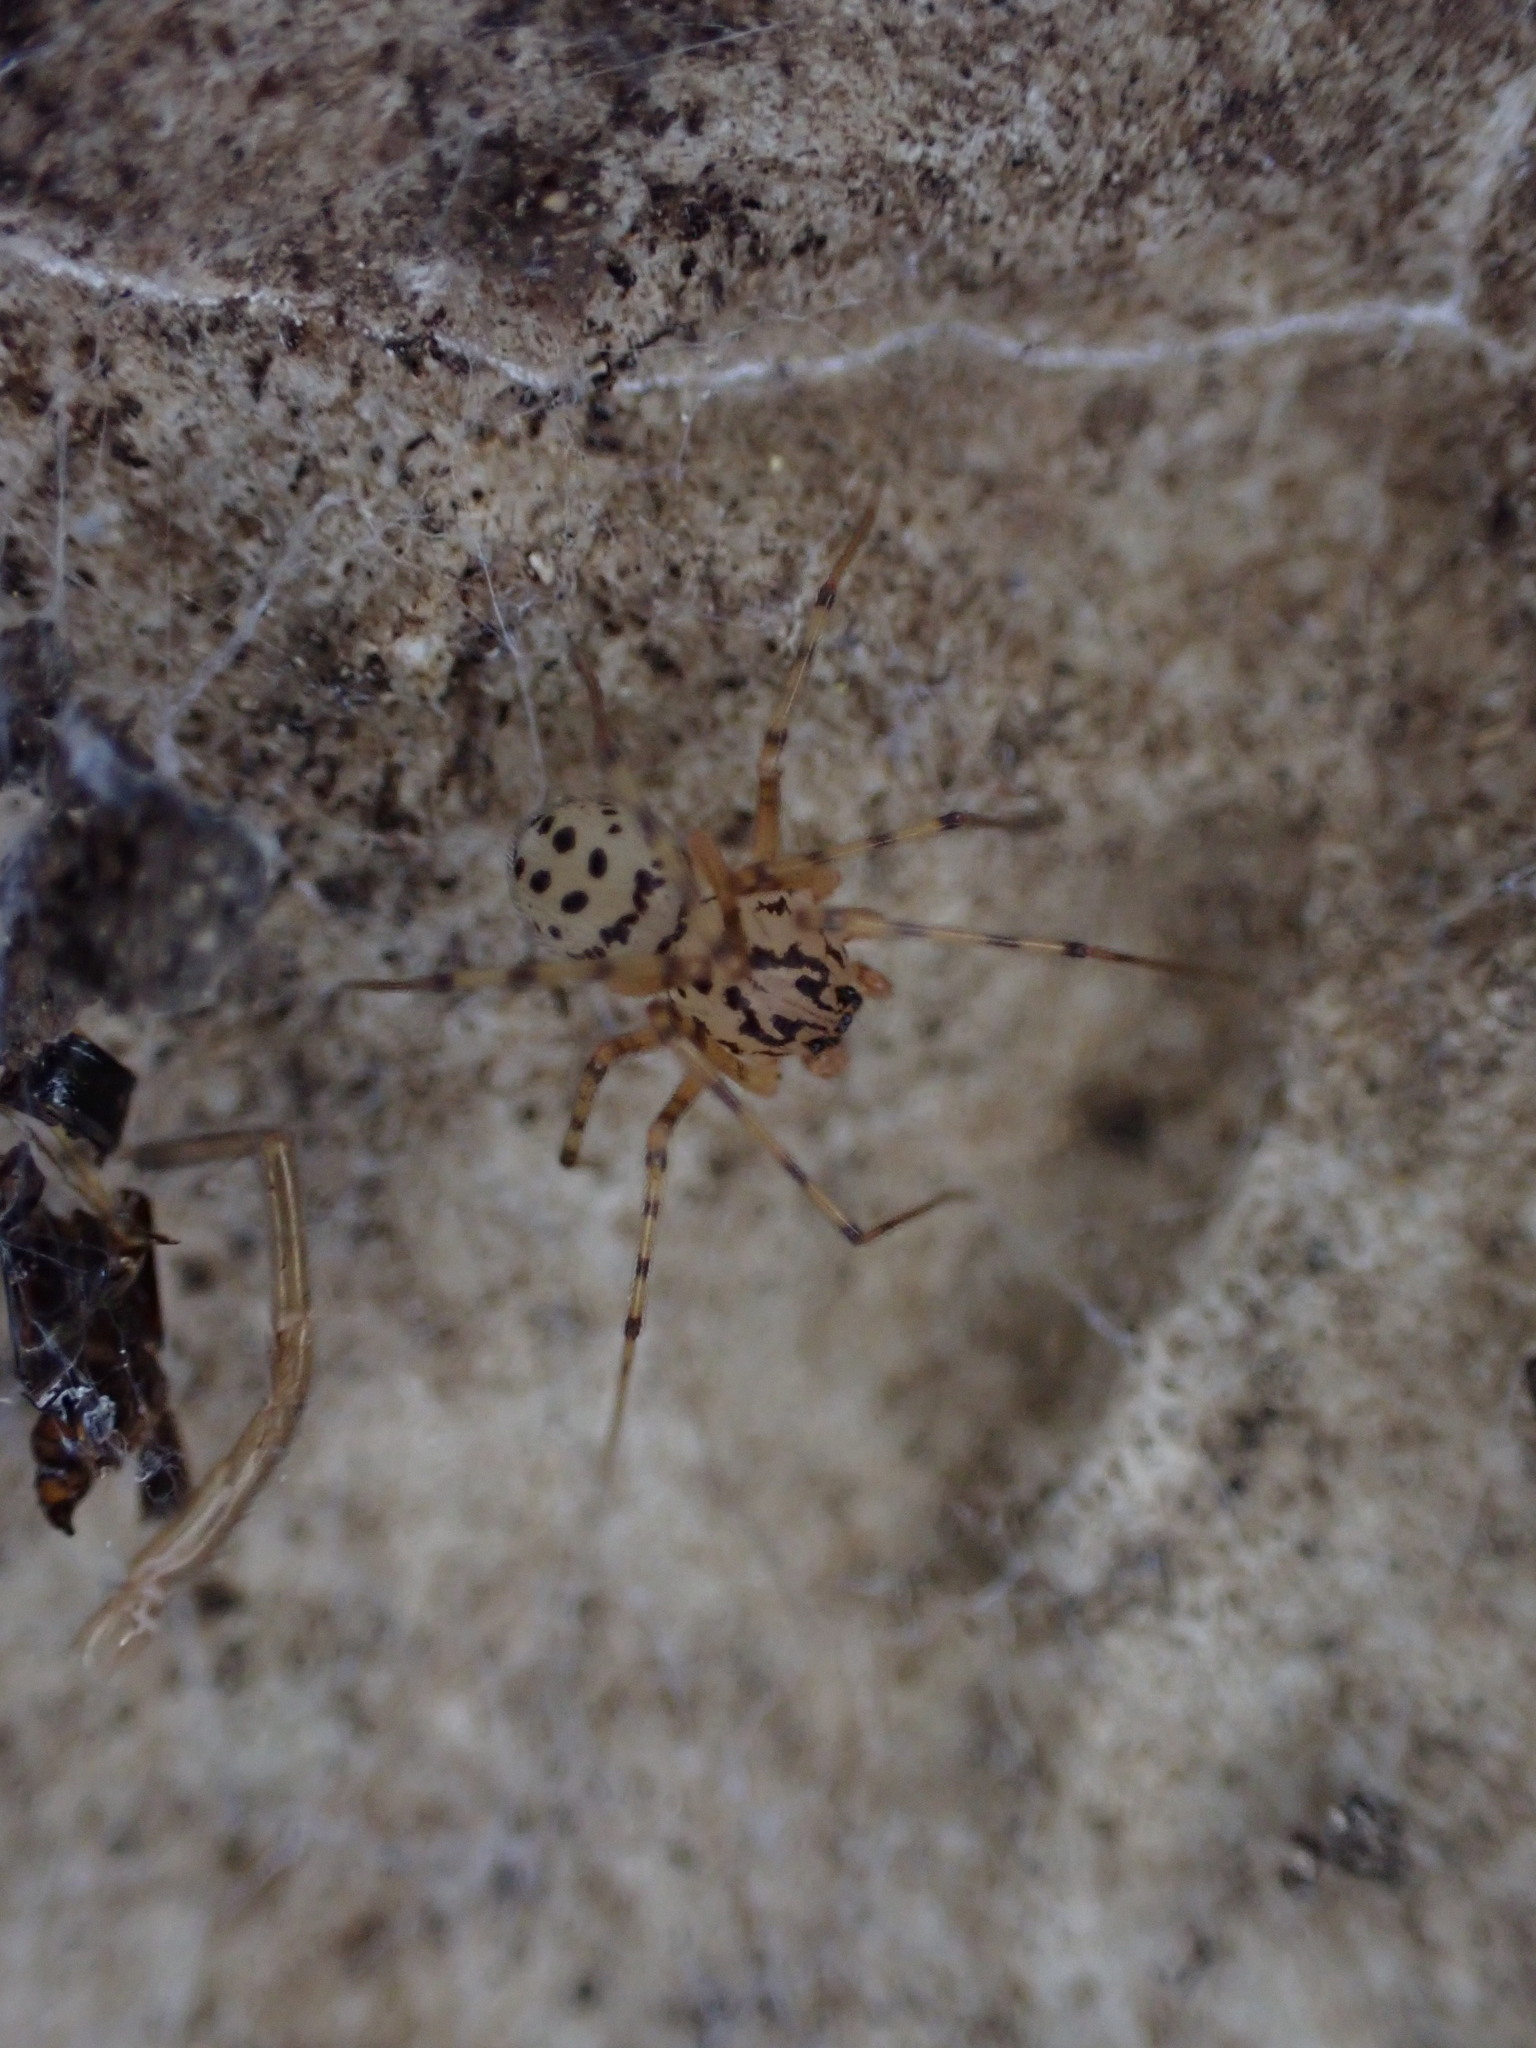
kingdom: Animalia
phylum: Arthropoda
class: Arachnida
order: Araneae
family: Scytodidae
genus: Scytodes
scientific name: Scytodes thoracica
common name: Spitting spider
